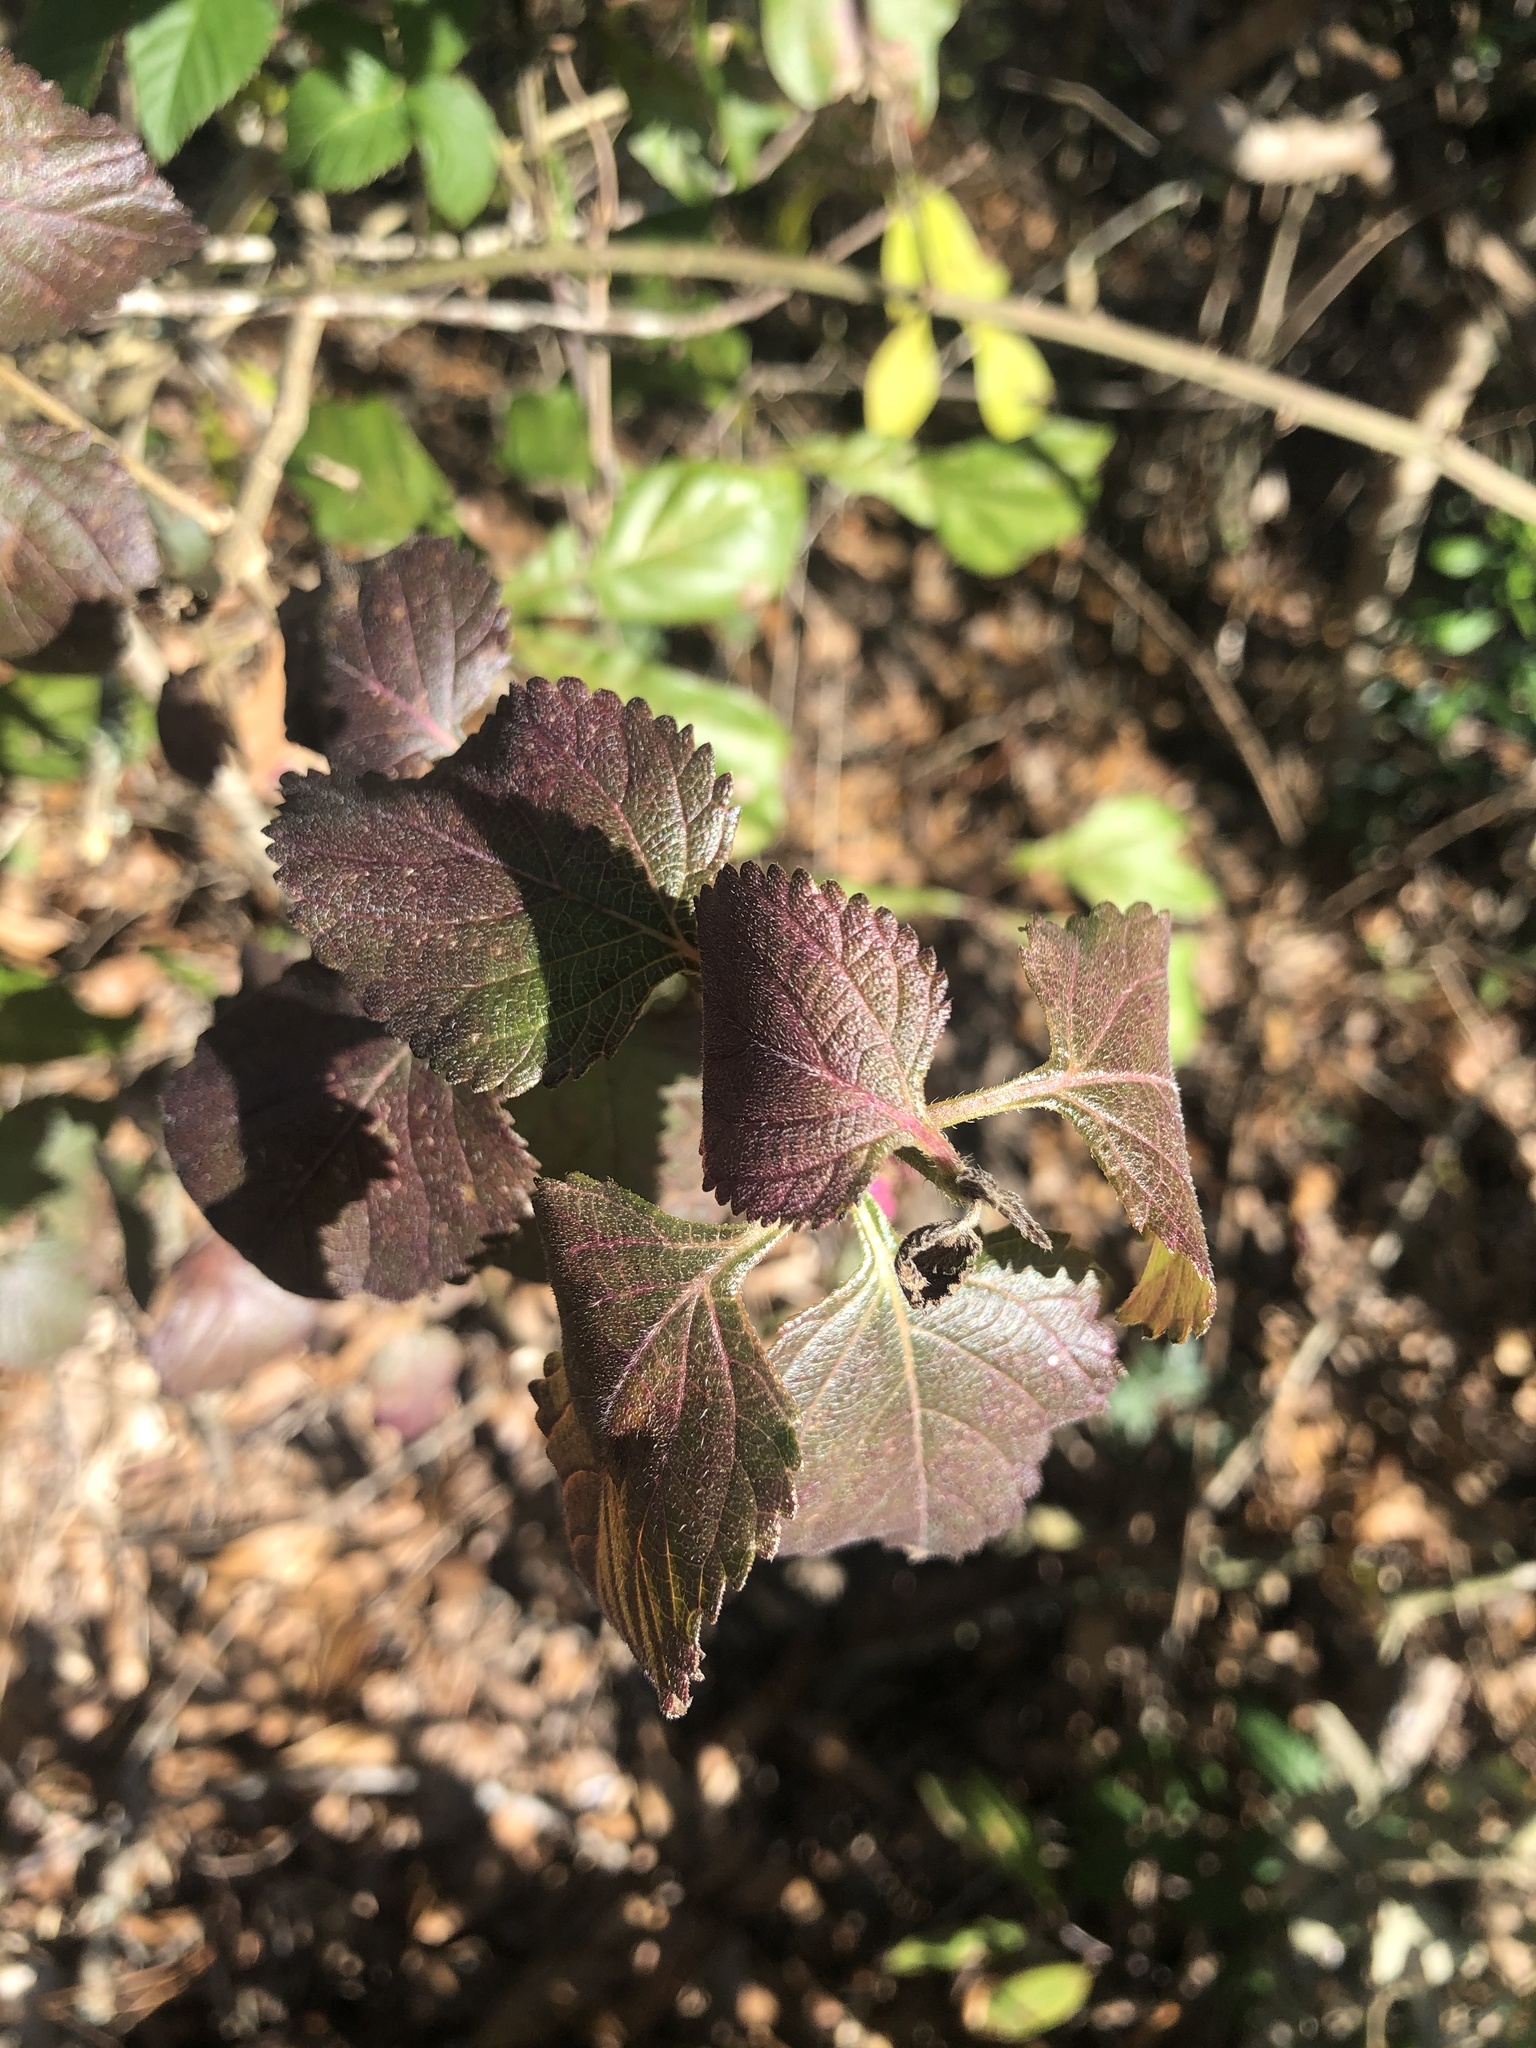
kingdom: Plantae
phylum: Tracheophyta
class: Magnoliopsida
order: Lamiales
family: Verbenaceae
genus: Lantana
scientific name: Lantana strigocamara
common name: Lantana
